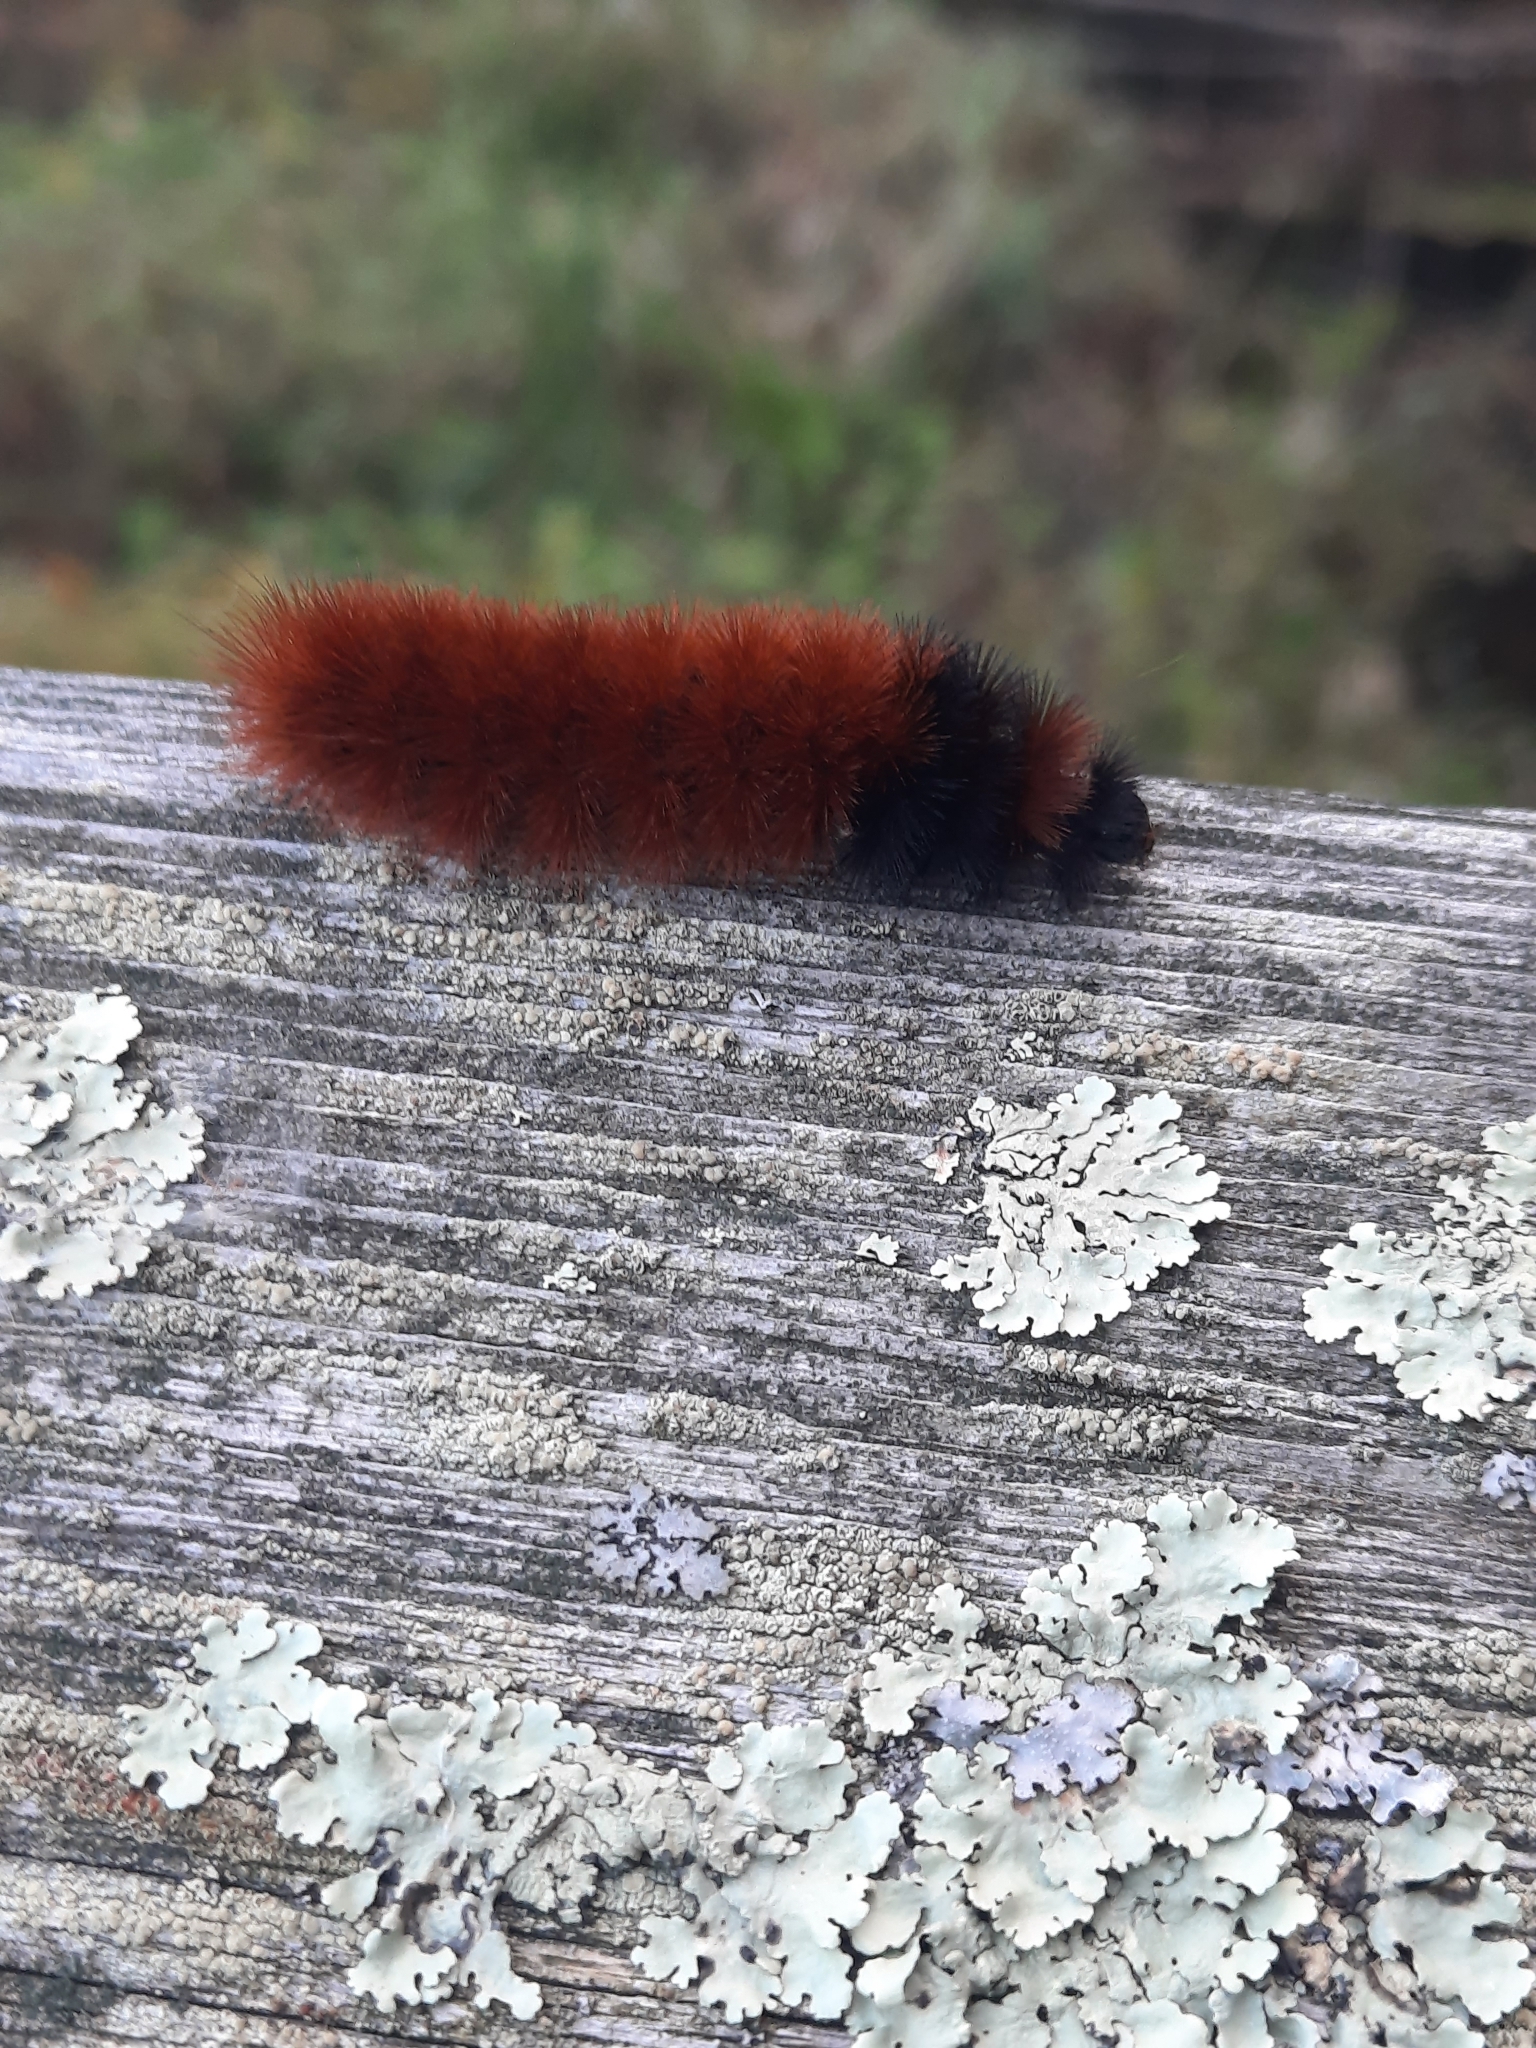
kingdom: Animalia
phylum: Arthropoda
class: Insecta
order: Lepidoptera
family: Erebidae
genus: Pyrrharctia
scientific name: Pyrrharctia isabella
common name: Isabella tiger moth
